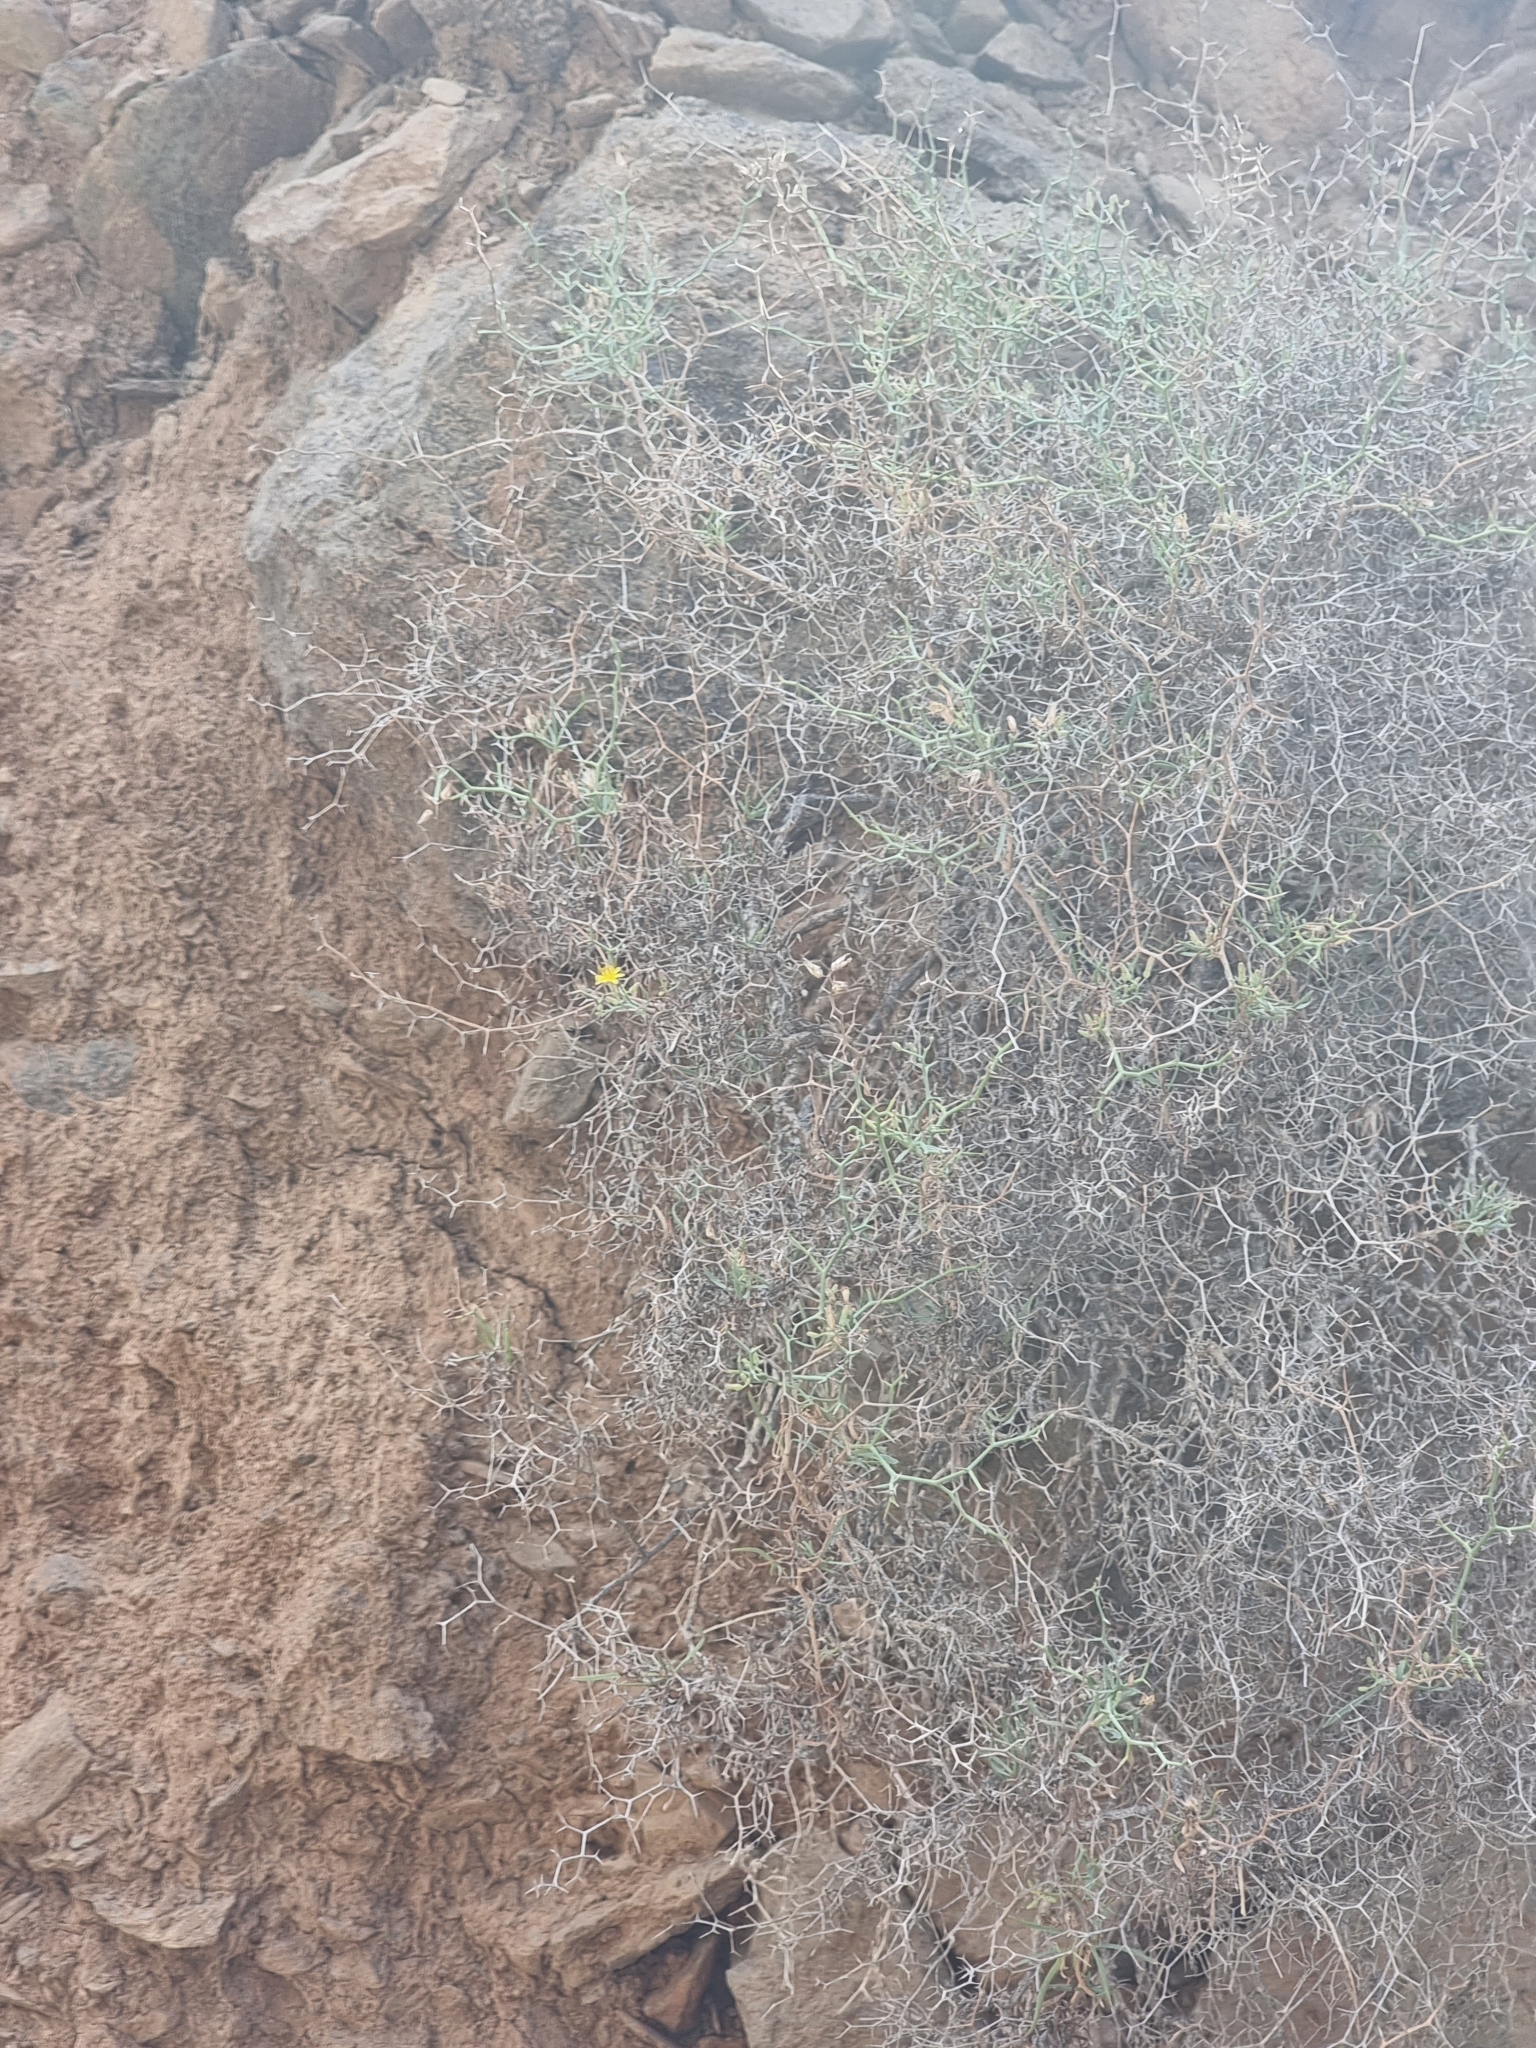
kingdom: Plantae
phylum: Tracheophyta
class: Magnoliopsida
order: Asterales
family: Asteraceae
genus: Launaea
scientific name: Launaea arborescens
